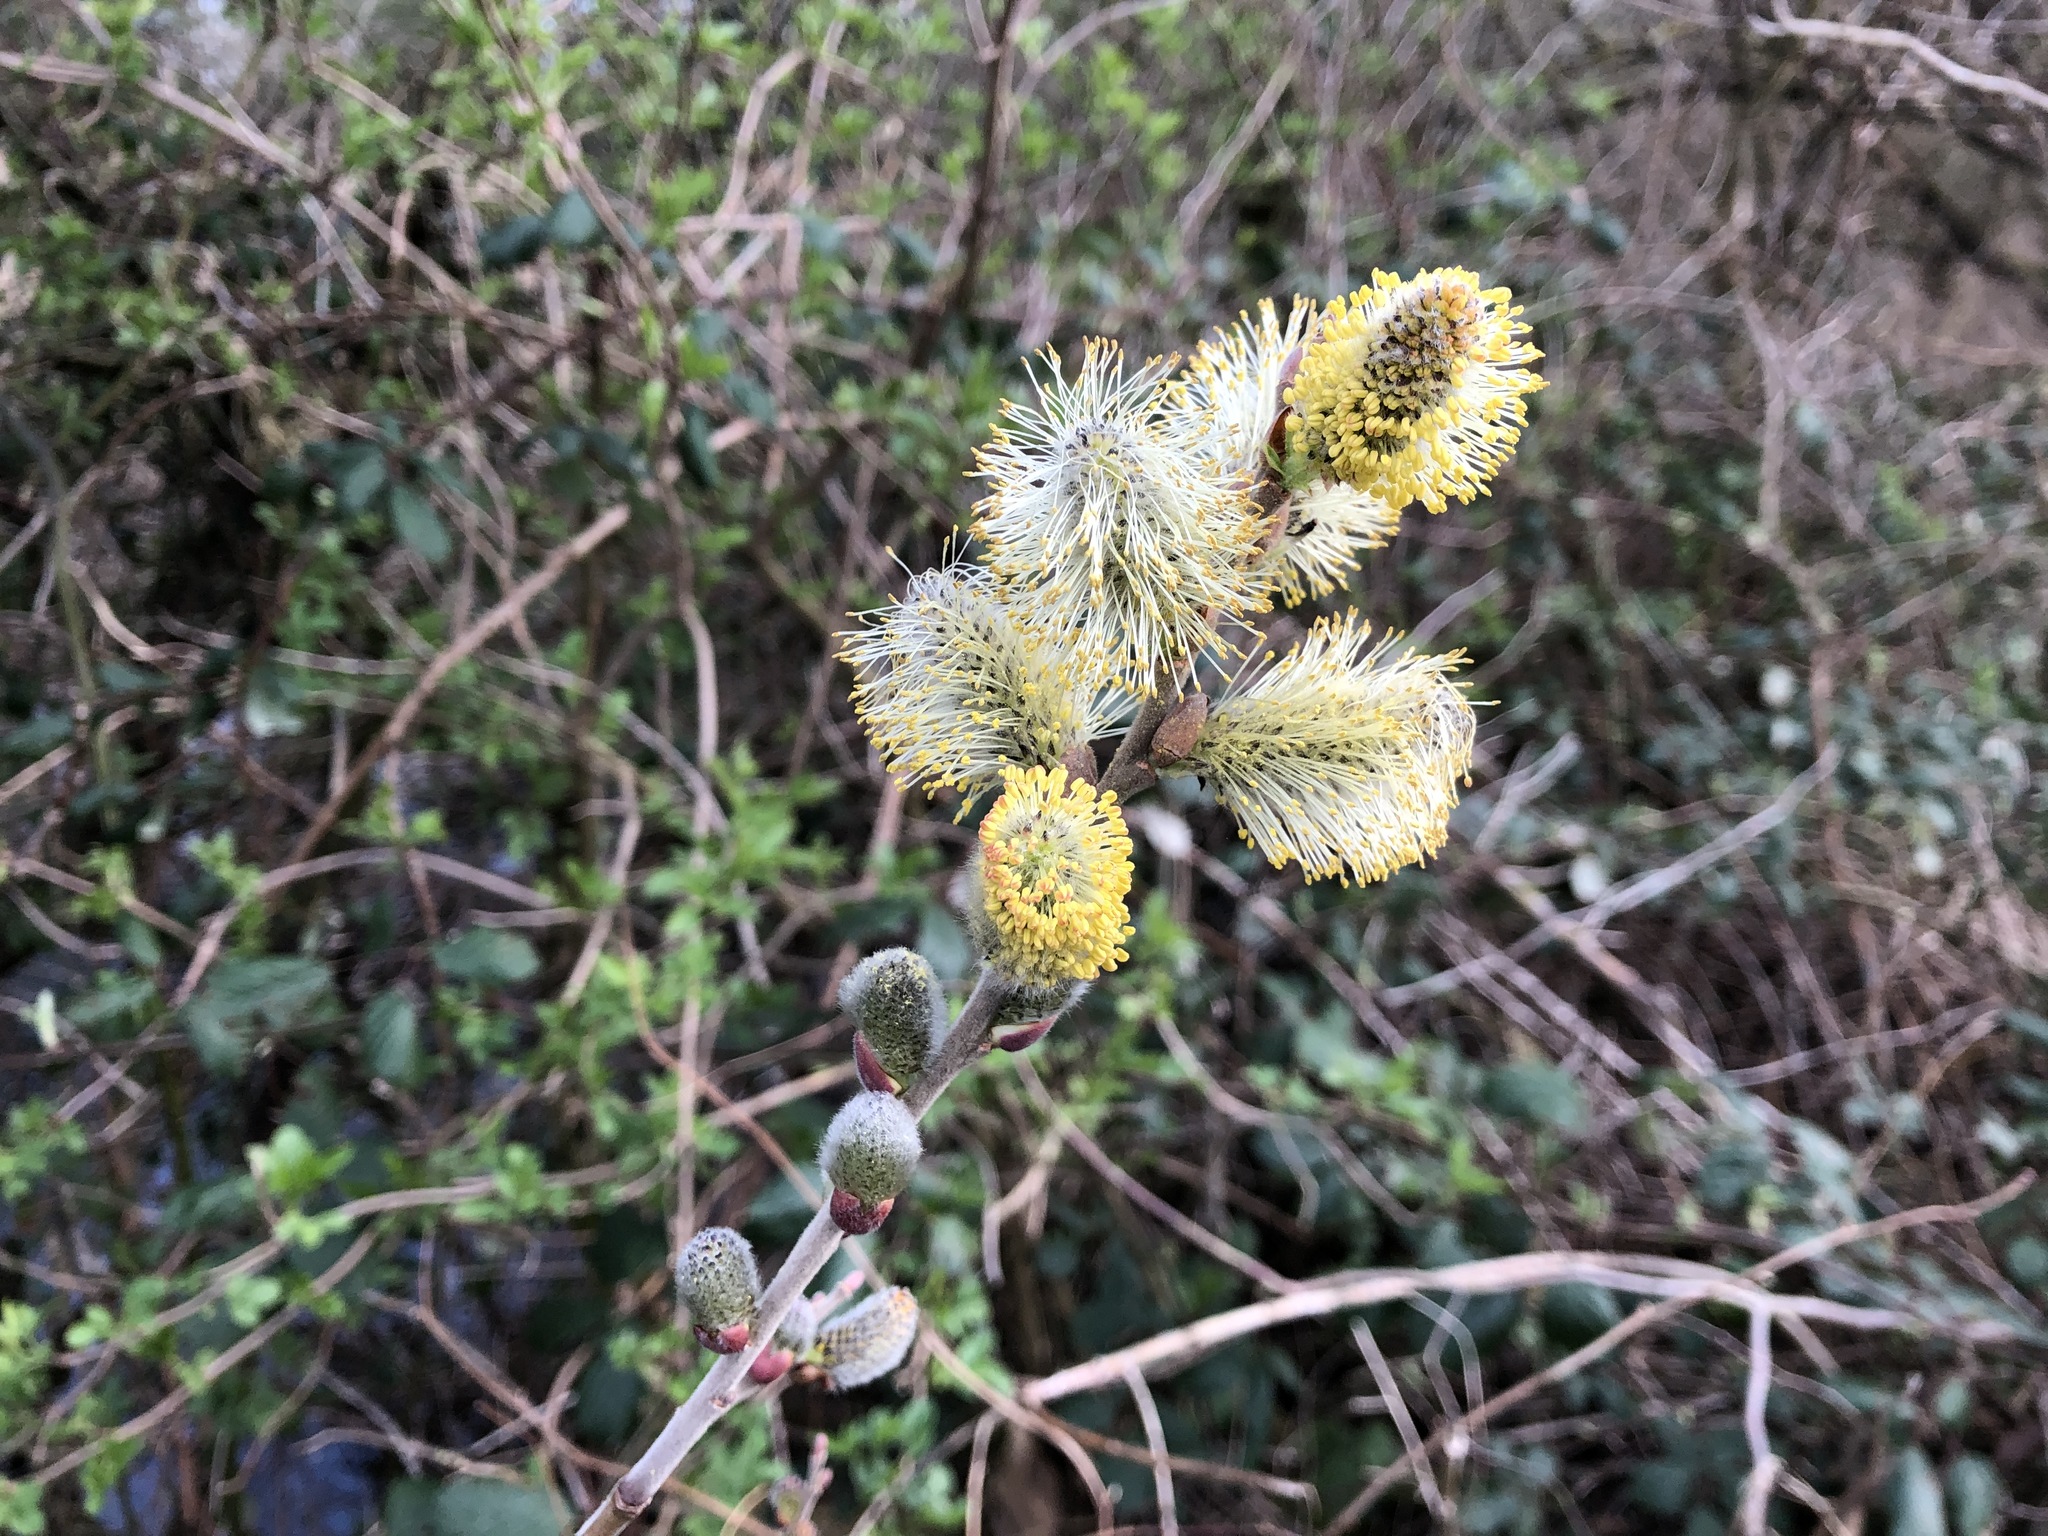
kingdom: Plantae
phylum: Tracheophyta
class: Magnoliopsida
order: Malpighiales
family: Salicaceae
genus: Salix
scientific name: Salix caprea
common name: Goat willow
